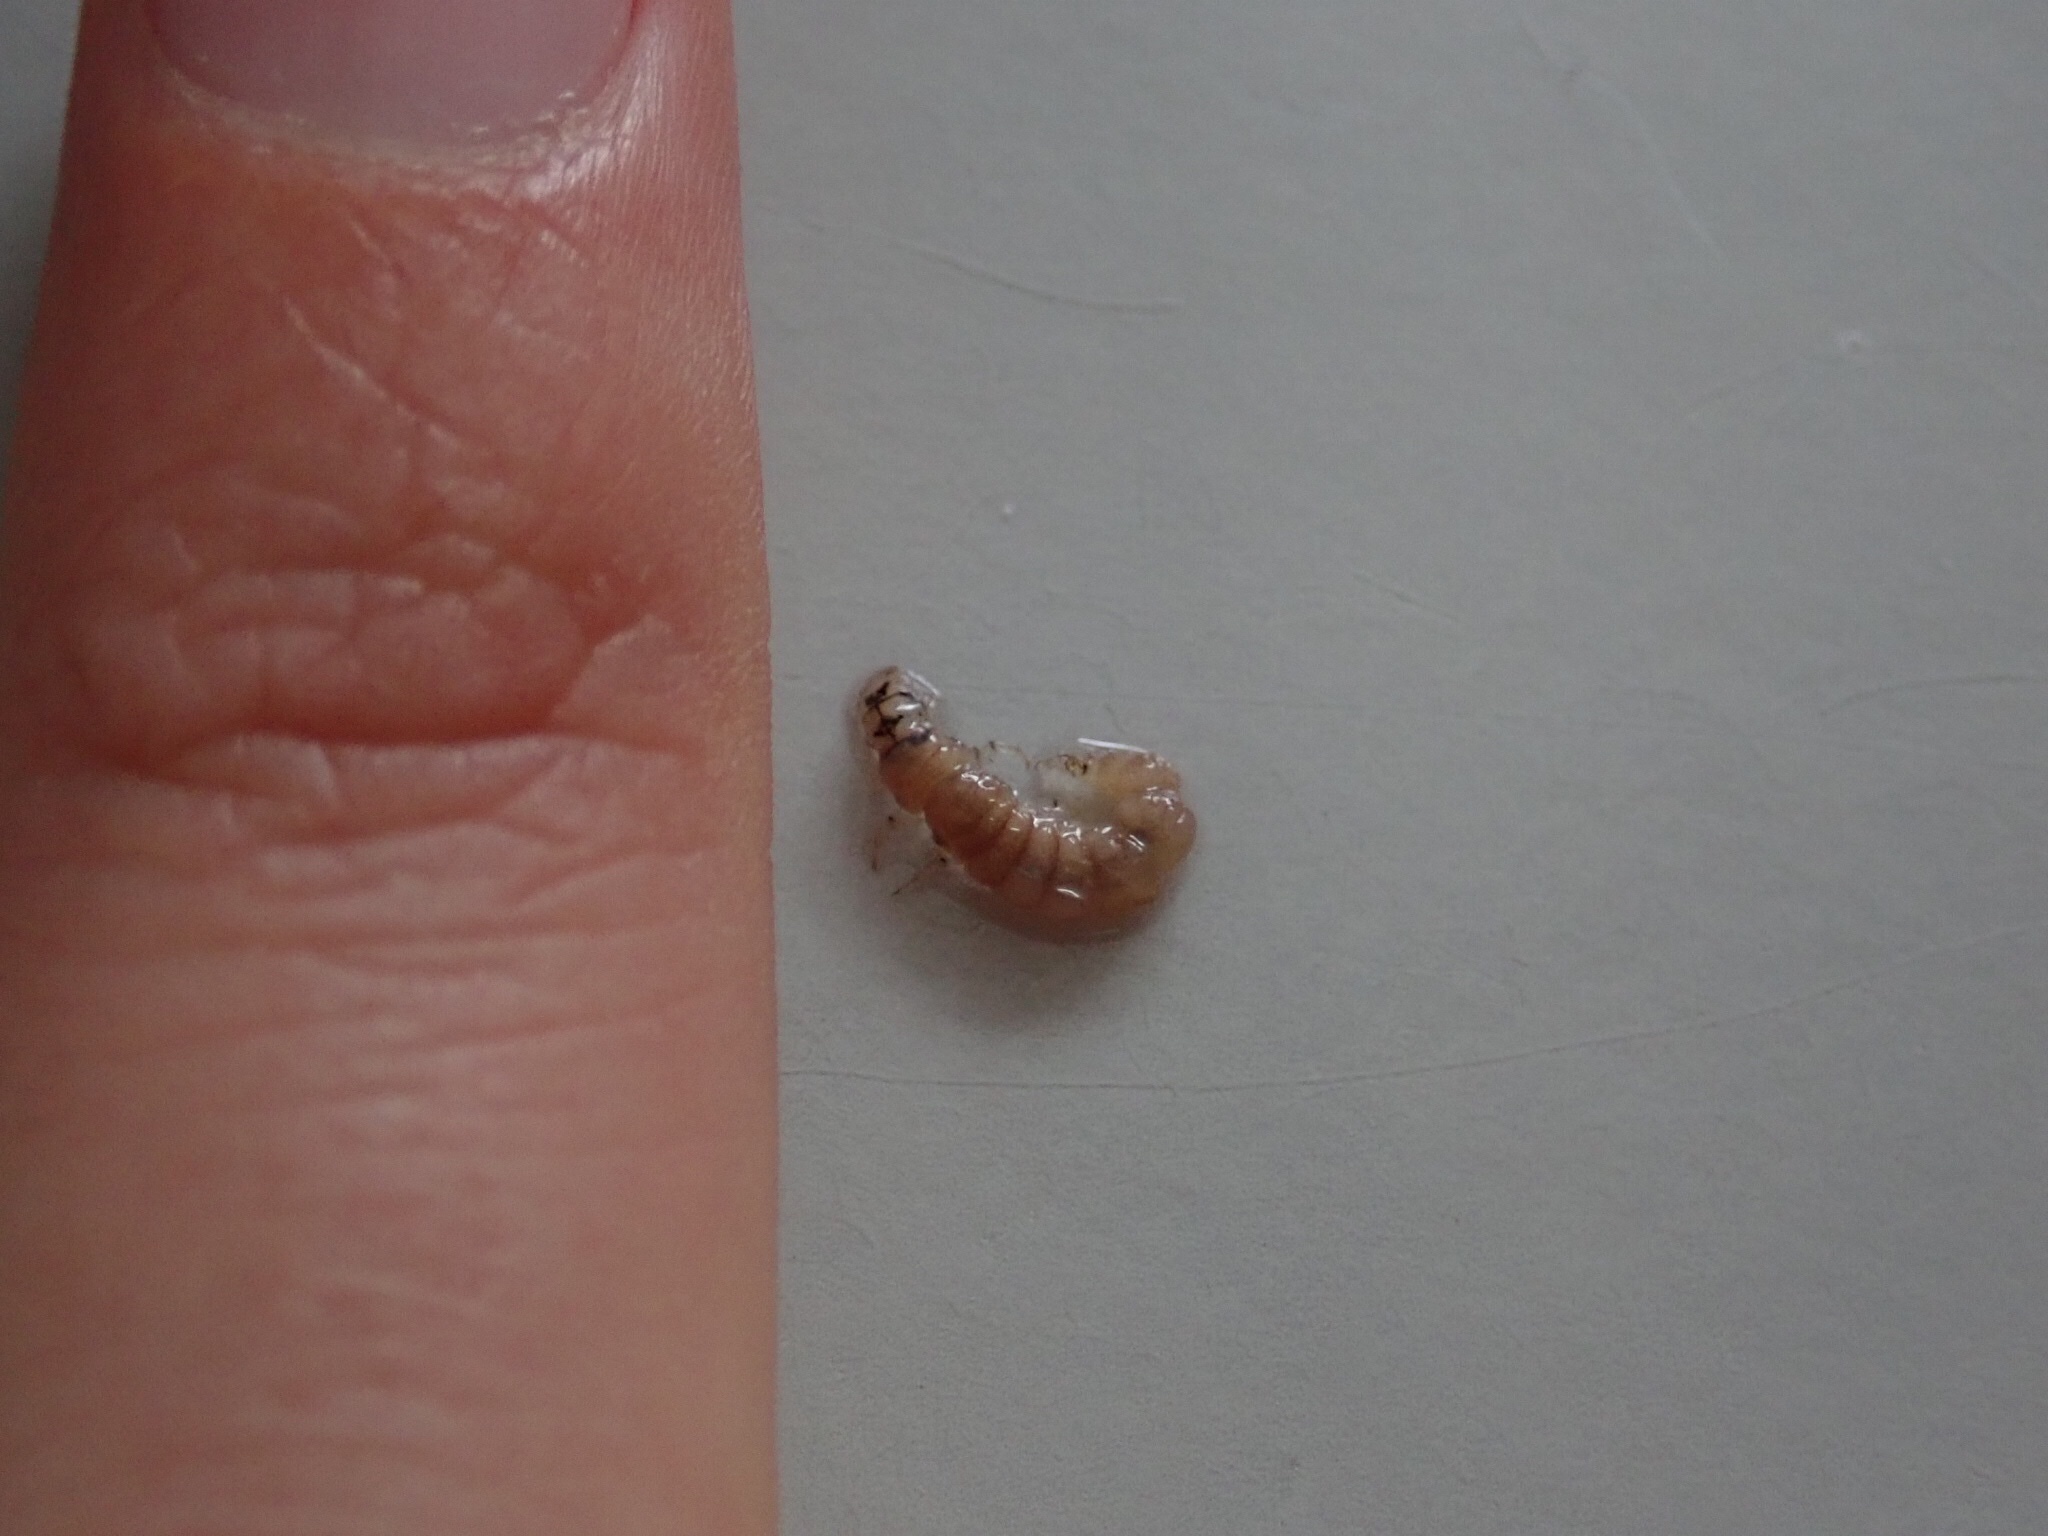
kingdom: Animalia
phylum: Arthropoda
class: Insecta
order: Trichoptera
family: Hydrobiosidae
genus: Hydrobiosis
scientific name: Hydrobiosis umbripennis
